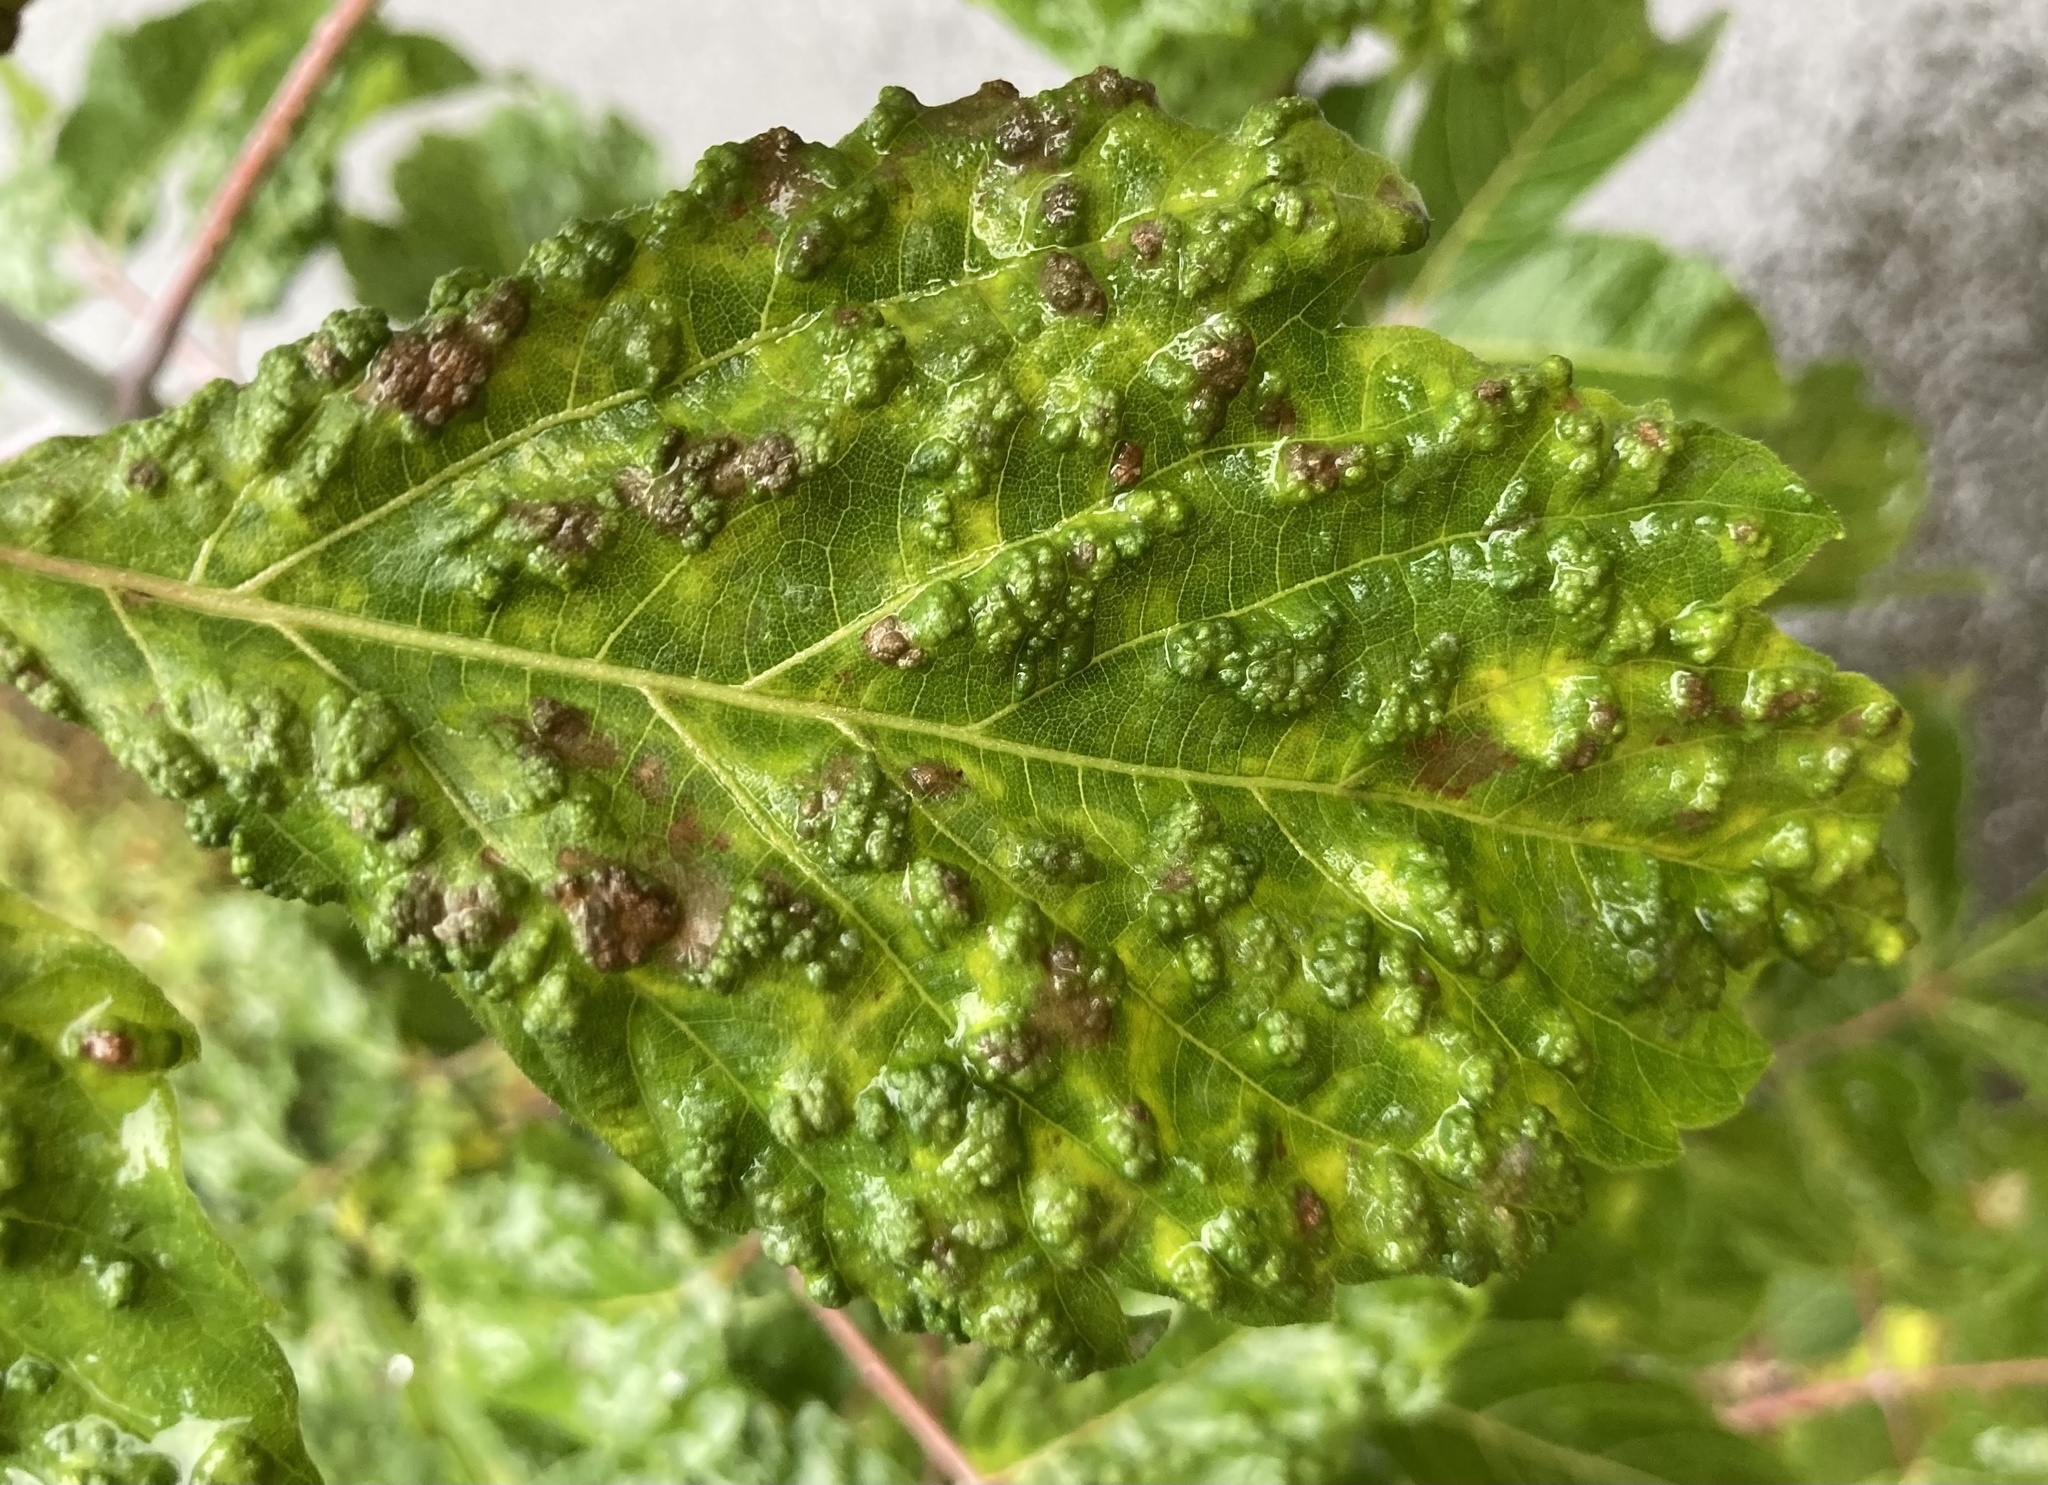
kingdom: Animalia
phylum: Arthropoda
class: Arachnida
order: Trombidiformes
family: Eriophyidae
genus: Aceria
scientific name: Aceria
